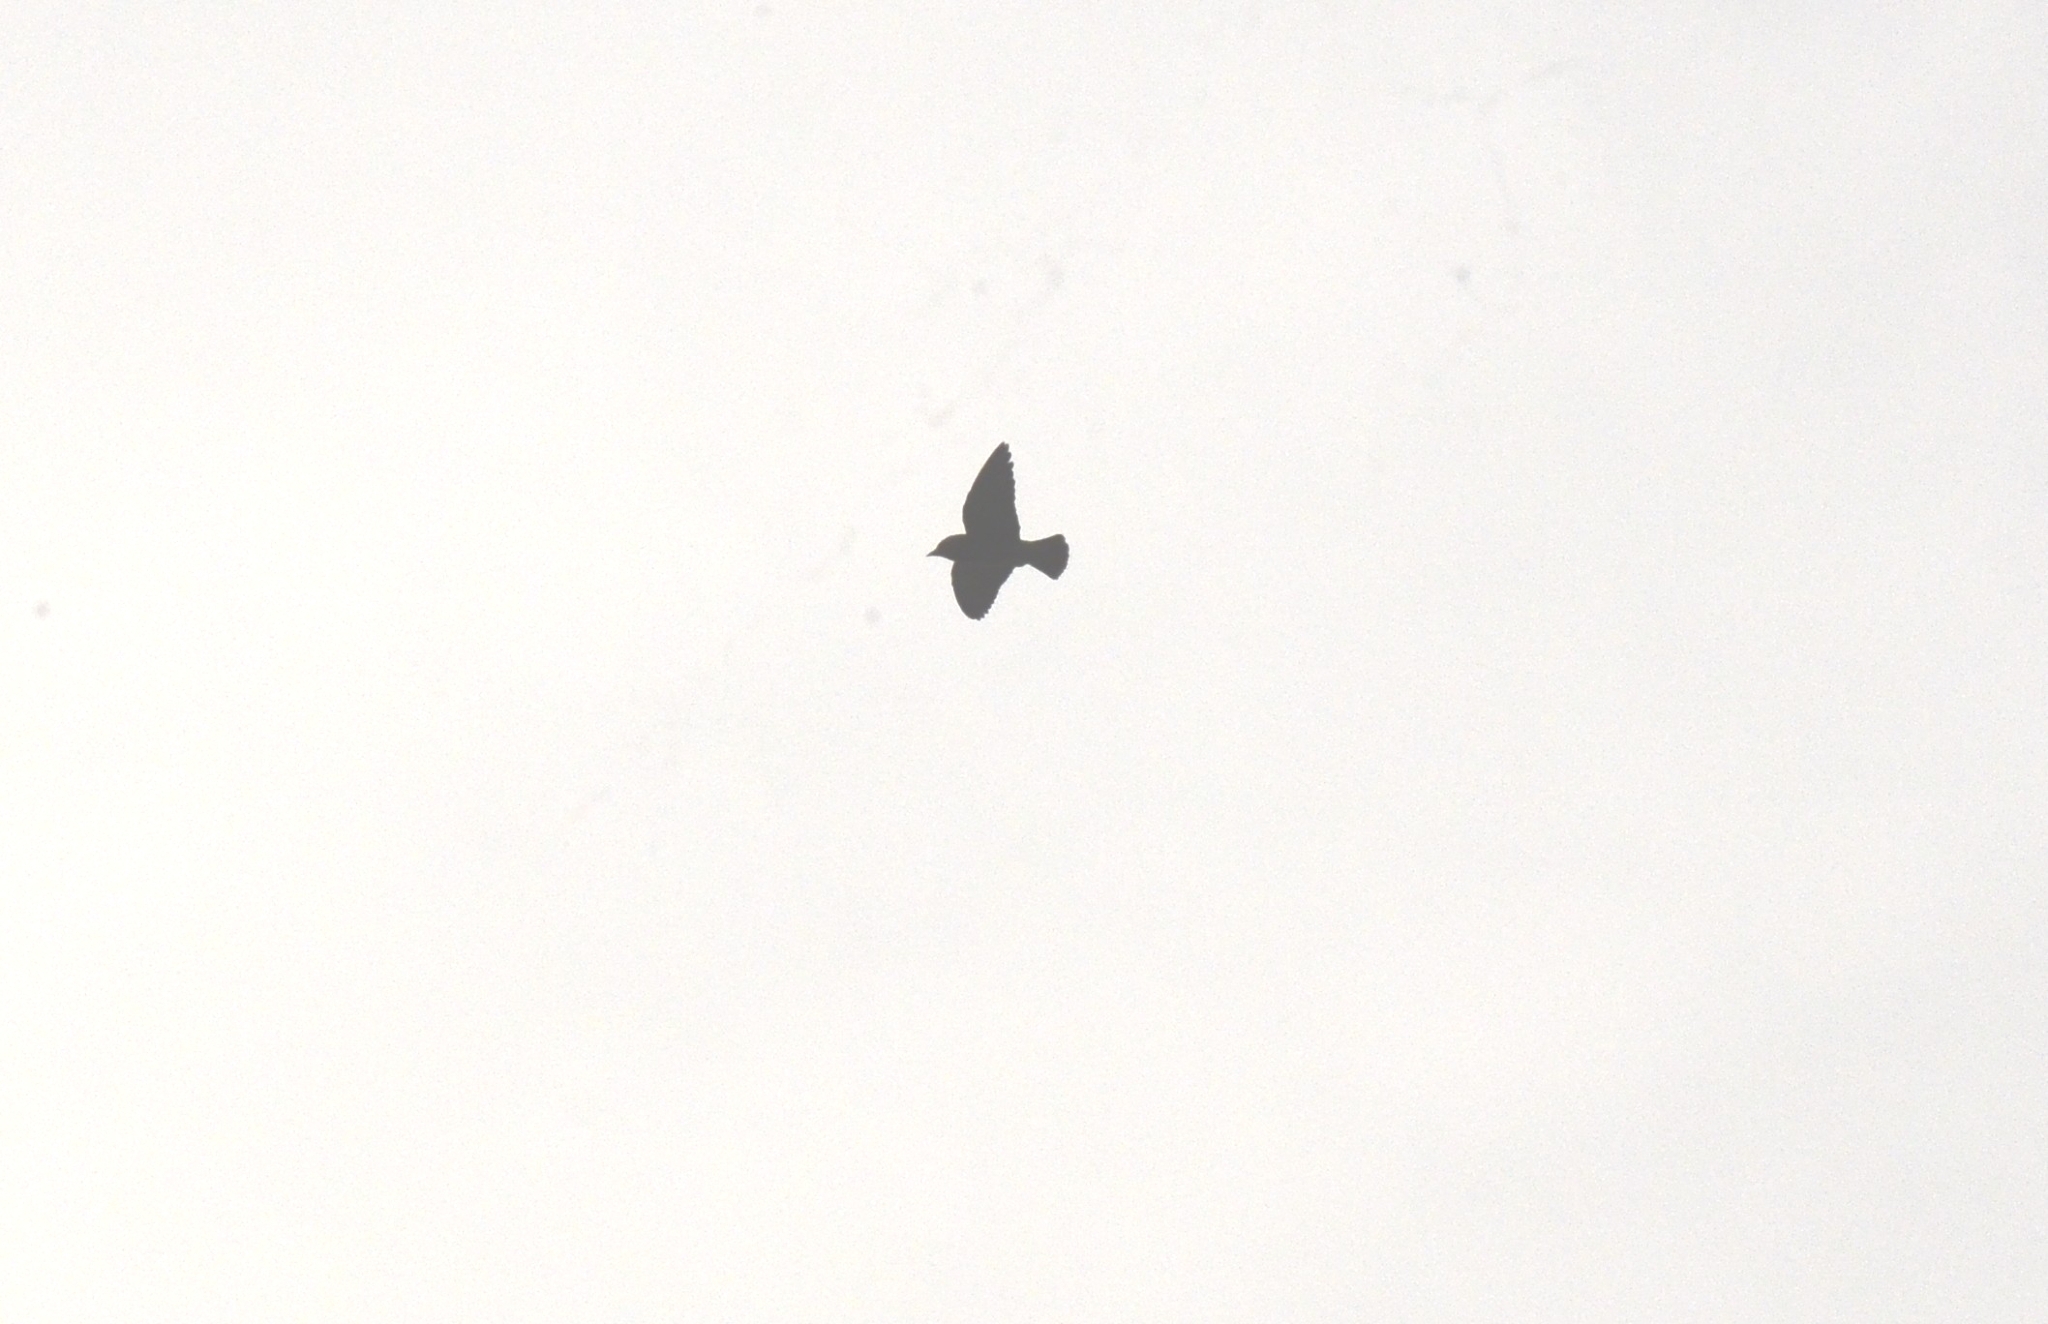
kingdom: Animalia
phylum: Chordata
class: Aves
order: Passeriformes
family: Artamidae
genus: Artamus
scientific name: Artamus fuscus
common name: Ashy woodswallow
